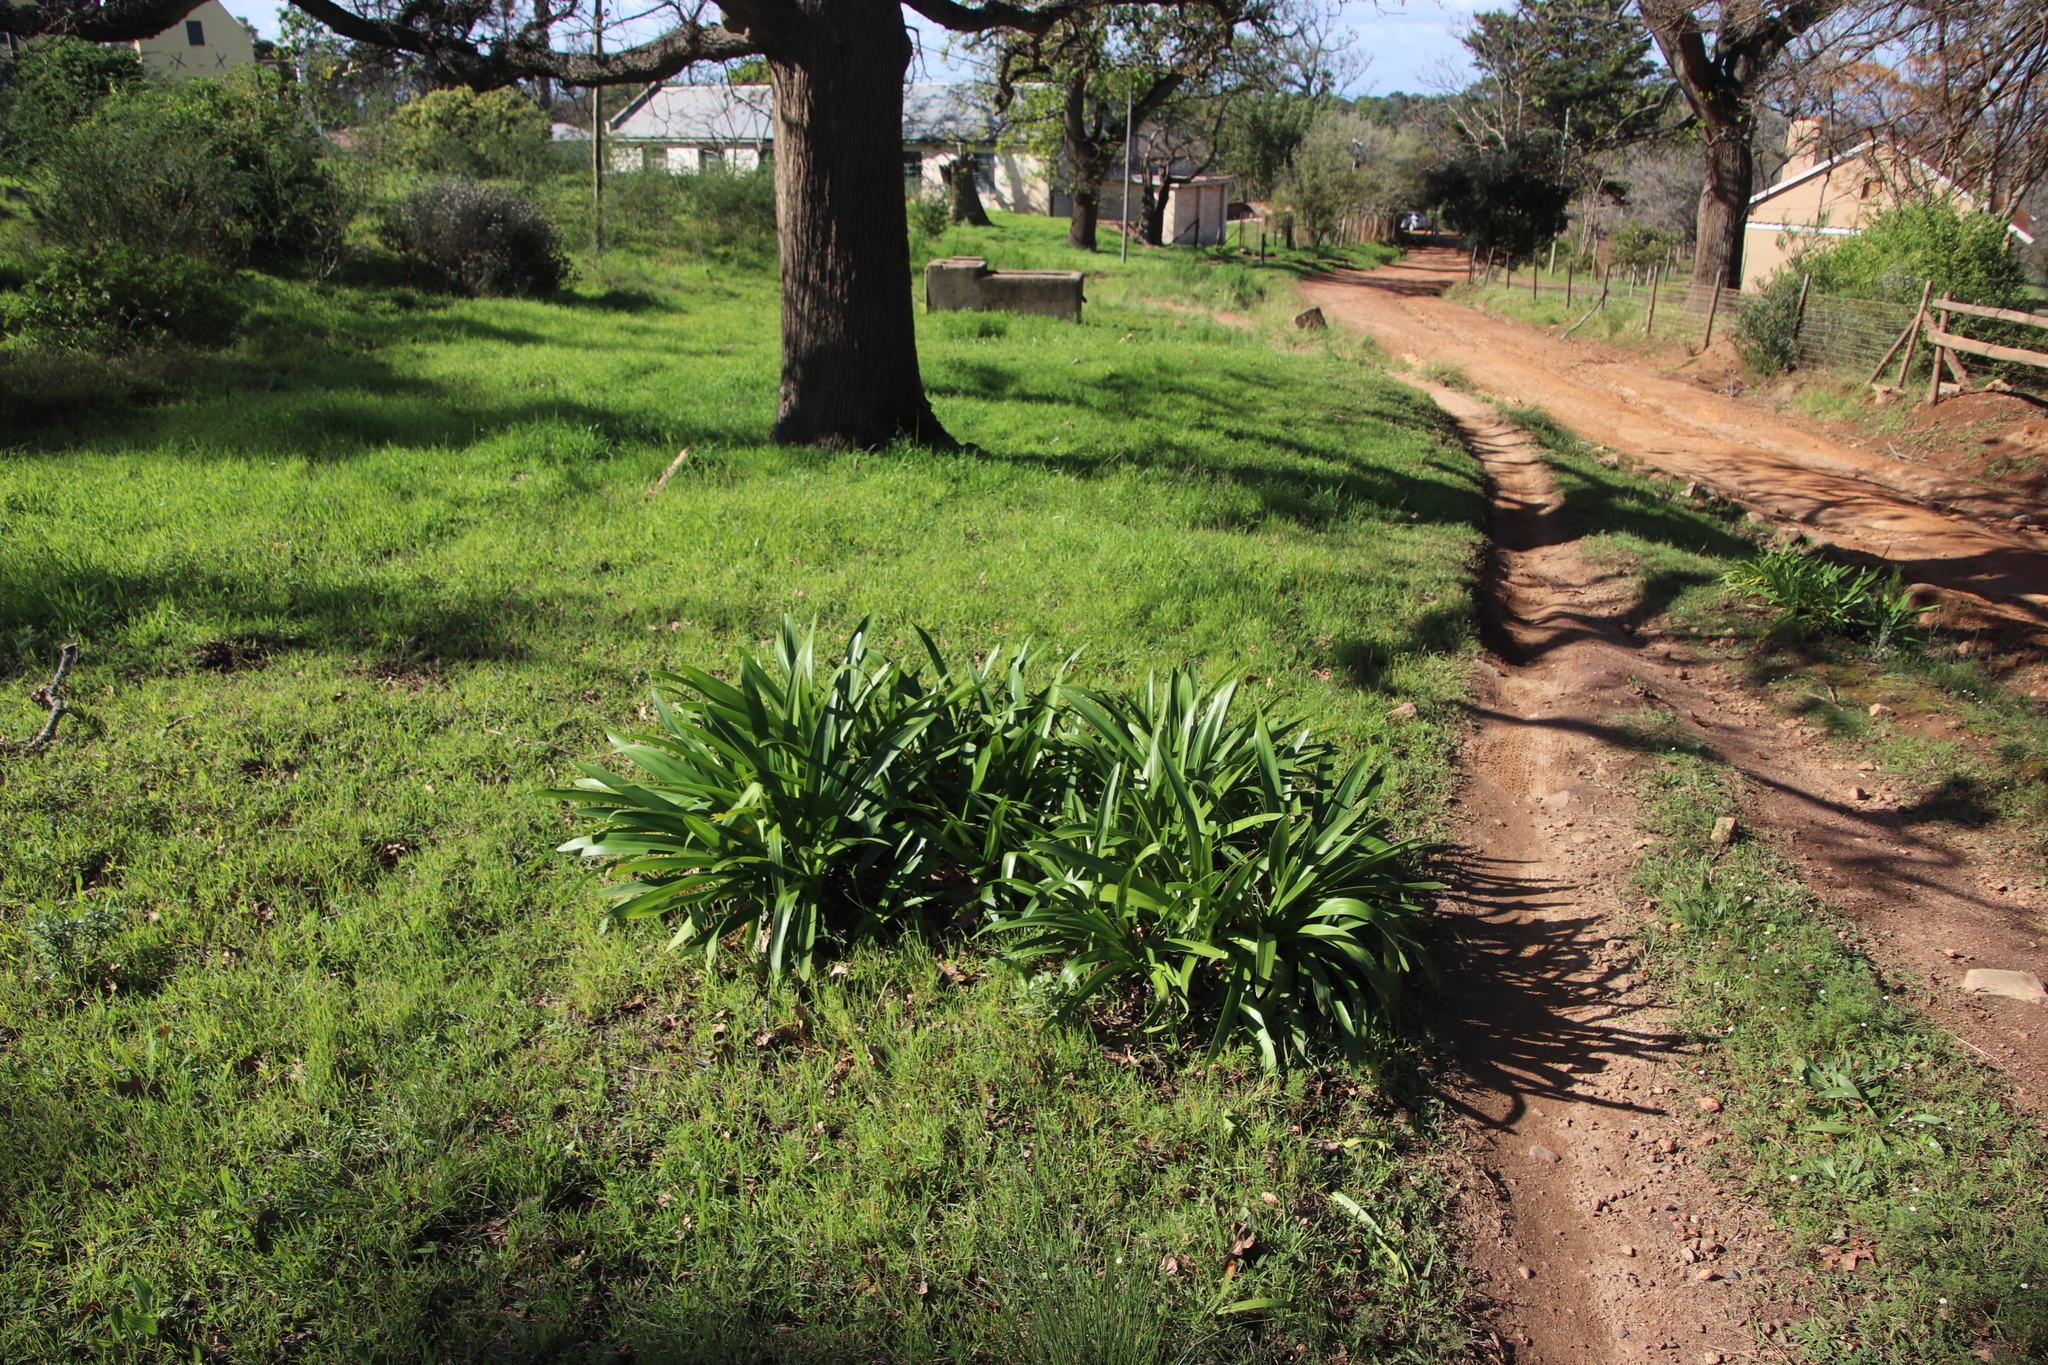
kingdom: Plantae
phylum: Tracheophyta
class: Liliopsida
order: Asparagales
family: Amaryllidaceae
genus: Agapanthus
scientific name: Agapanthus praecox
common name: African-lily
